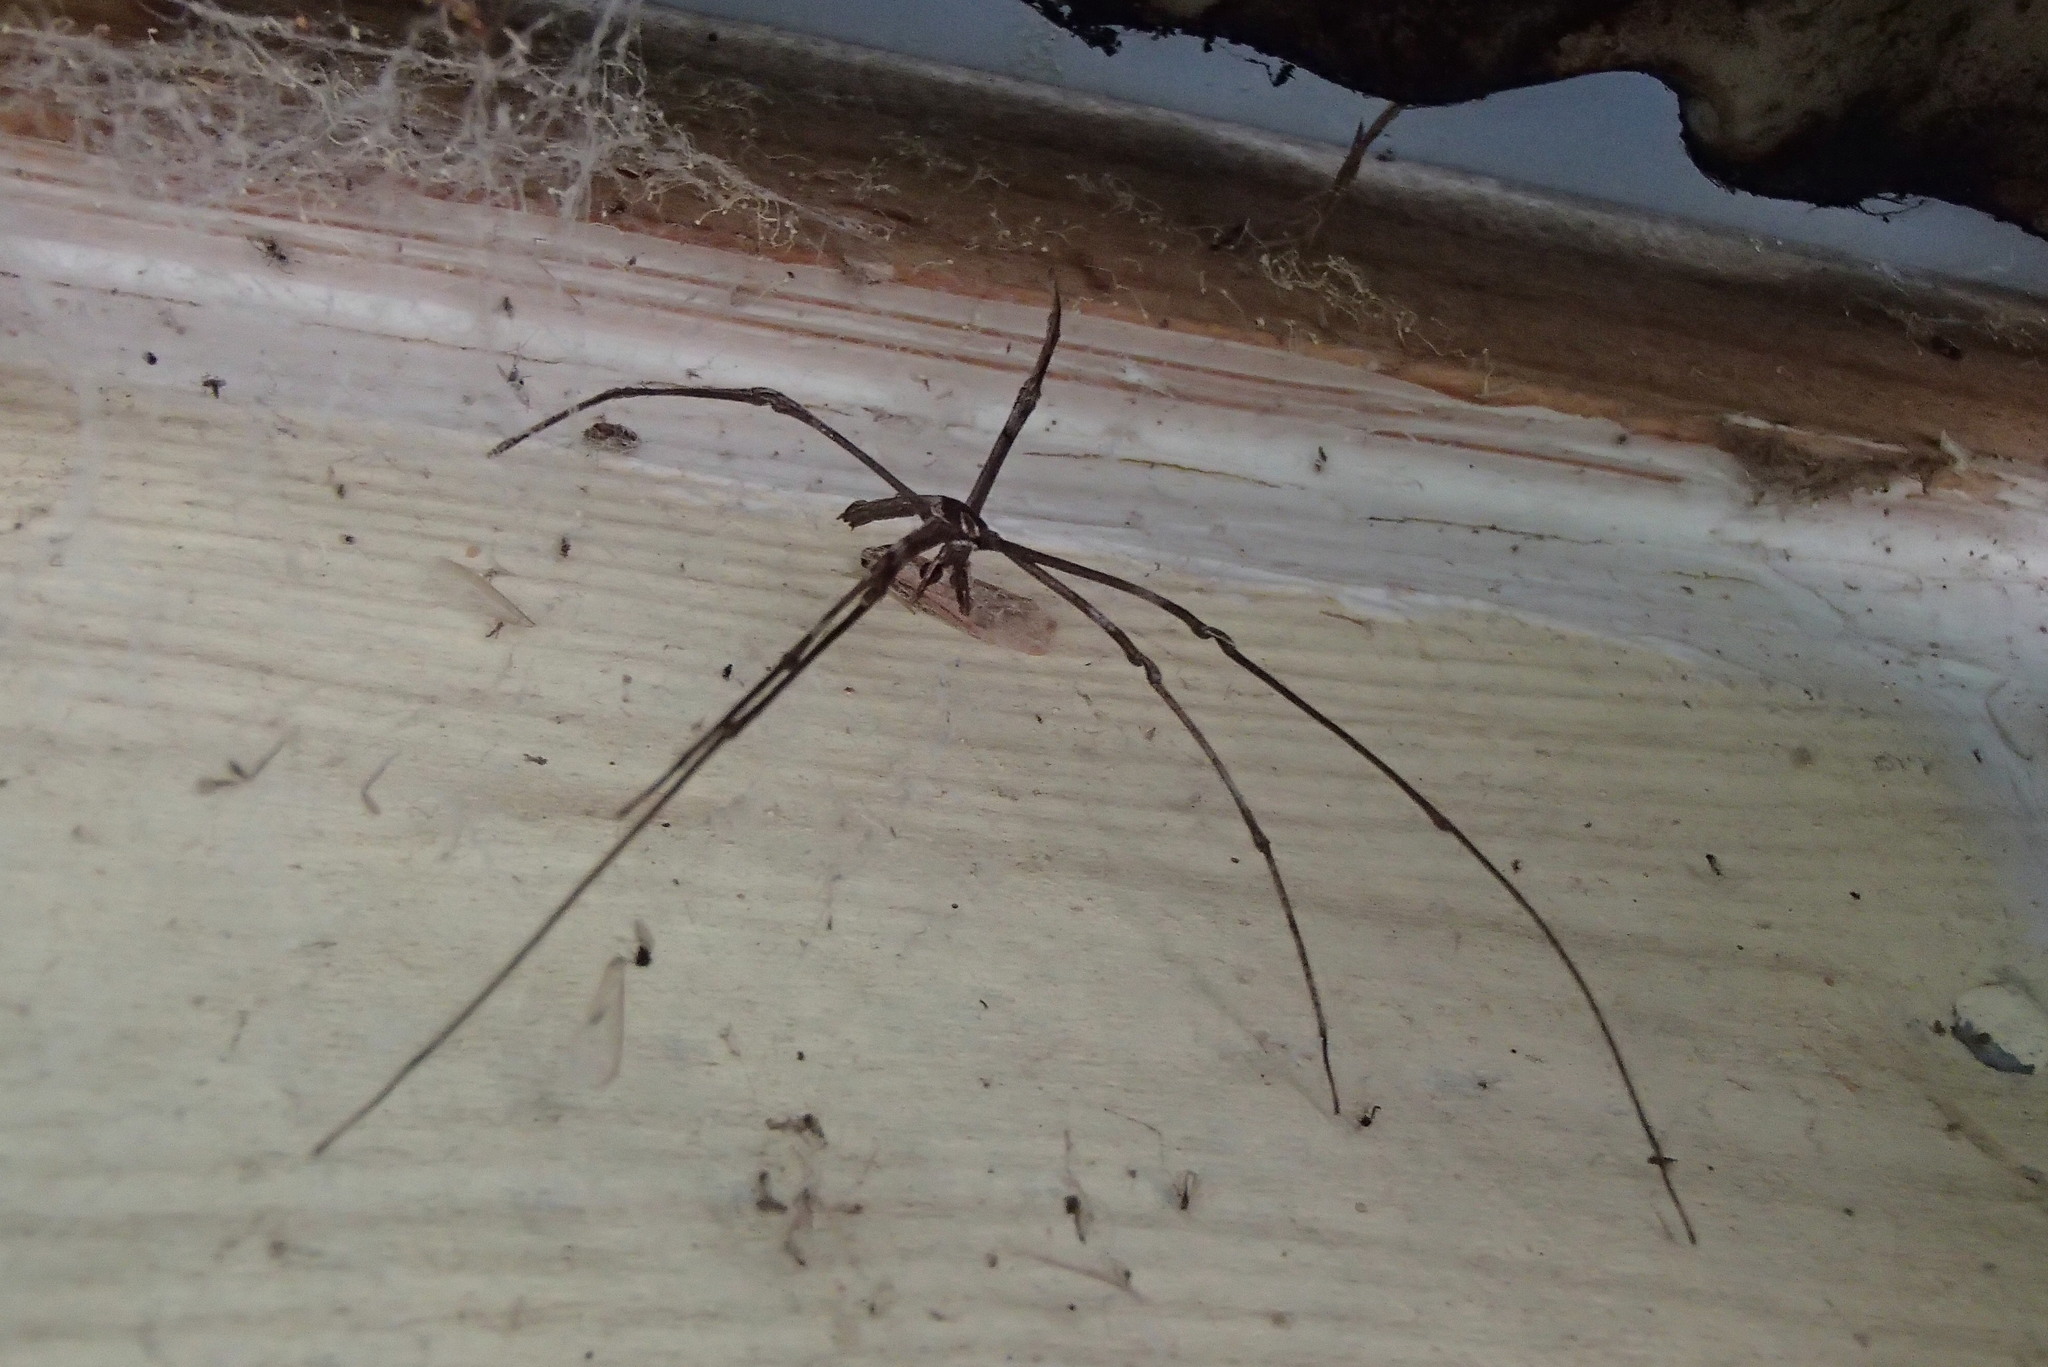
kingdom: Animalia
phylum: Arthropoda
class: Arachnida
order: Araneae
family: Deinopidae
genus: Deinopis
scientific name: Deinopis subrufa
